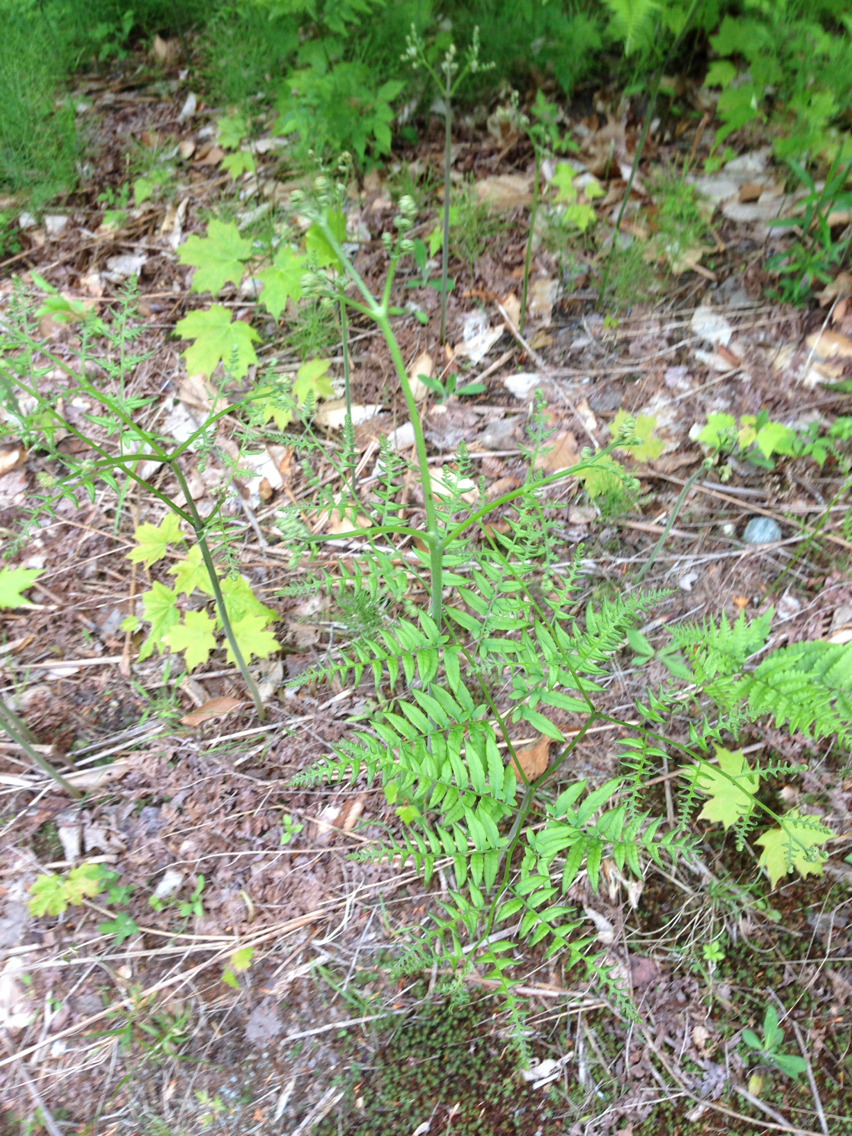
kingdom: Plantae
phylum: Tracheophyta
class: Polypodiopsida
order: Polypodiales
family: Dennstaedtiaceae
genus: Pteridium
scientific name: Pteridium aquilinum
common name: Bracken
